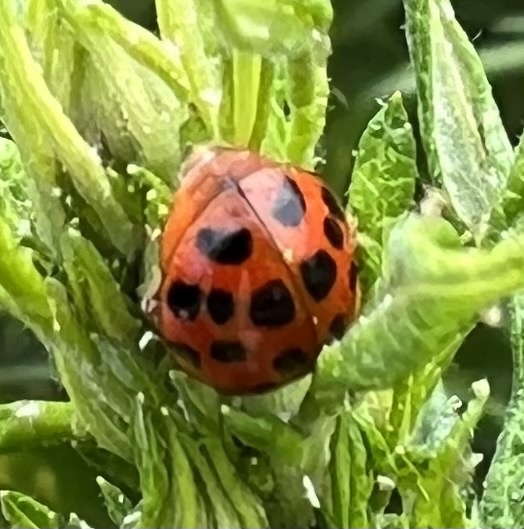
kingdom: Animalia
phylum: Arthropoda
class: Insecta
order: Coleoptera
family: Coccinellidae
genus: Harmonia
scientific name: Harmonia axyridis
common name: Harlequin ladybird
